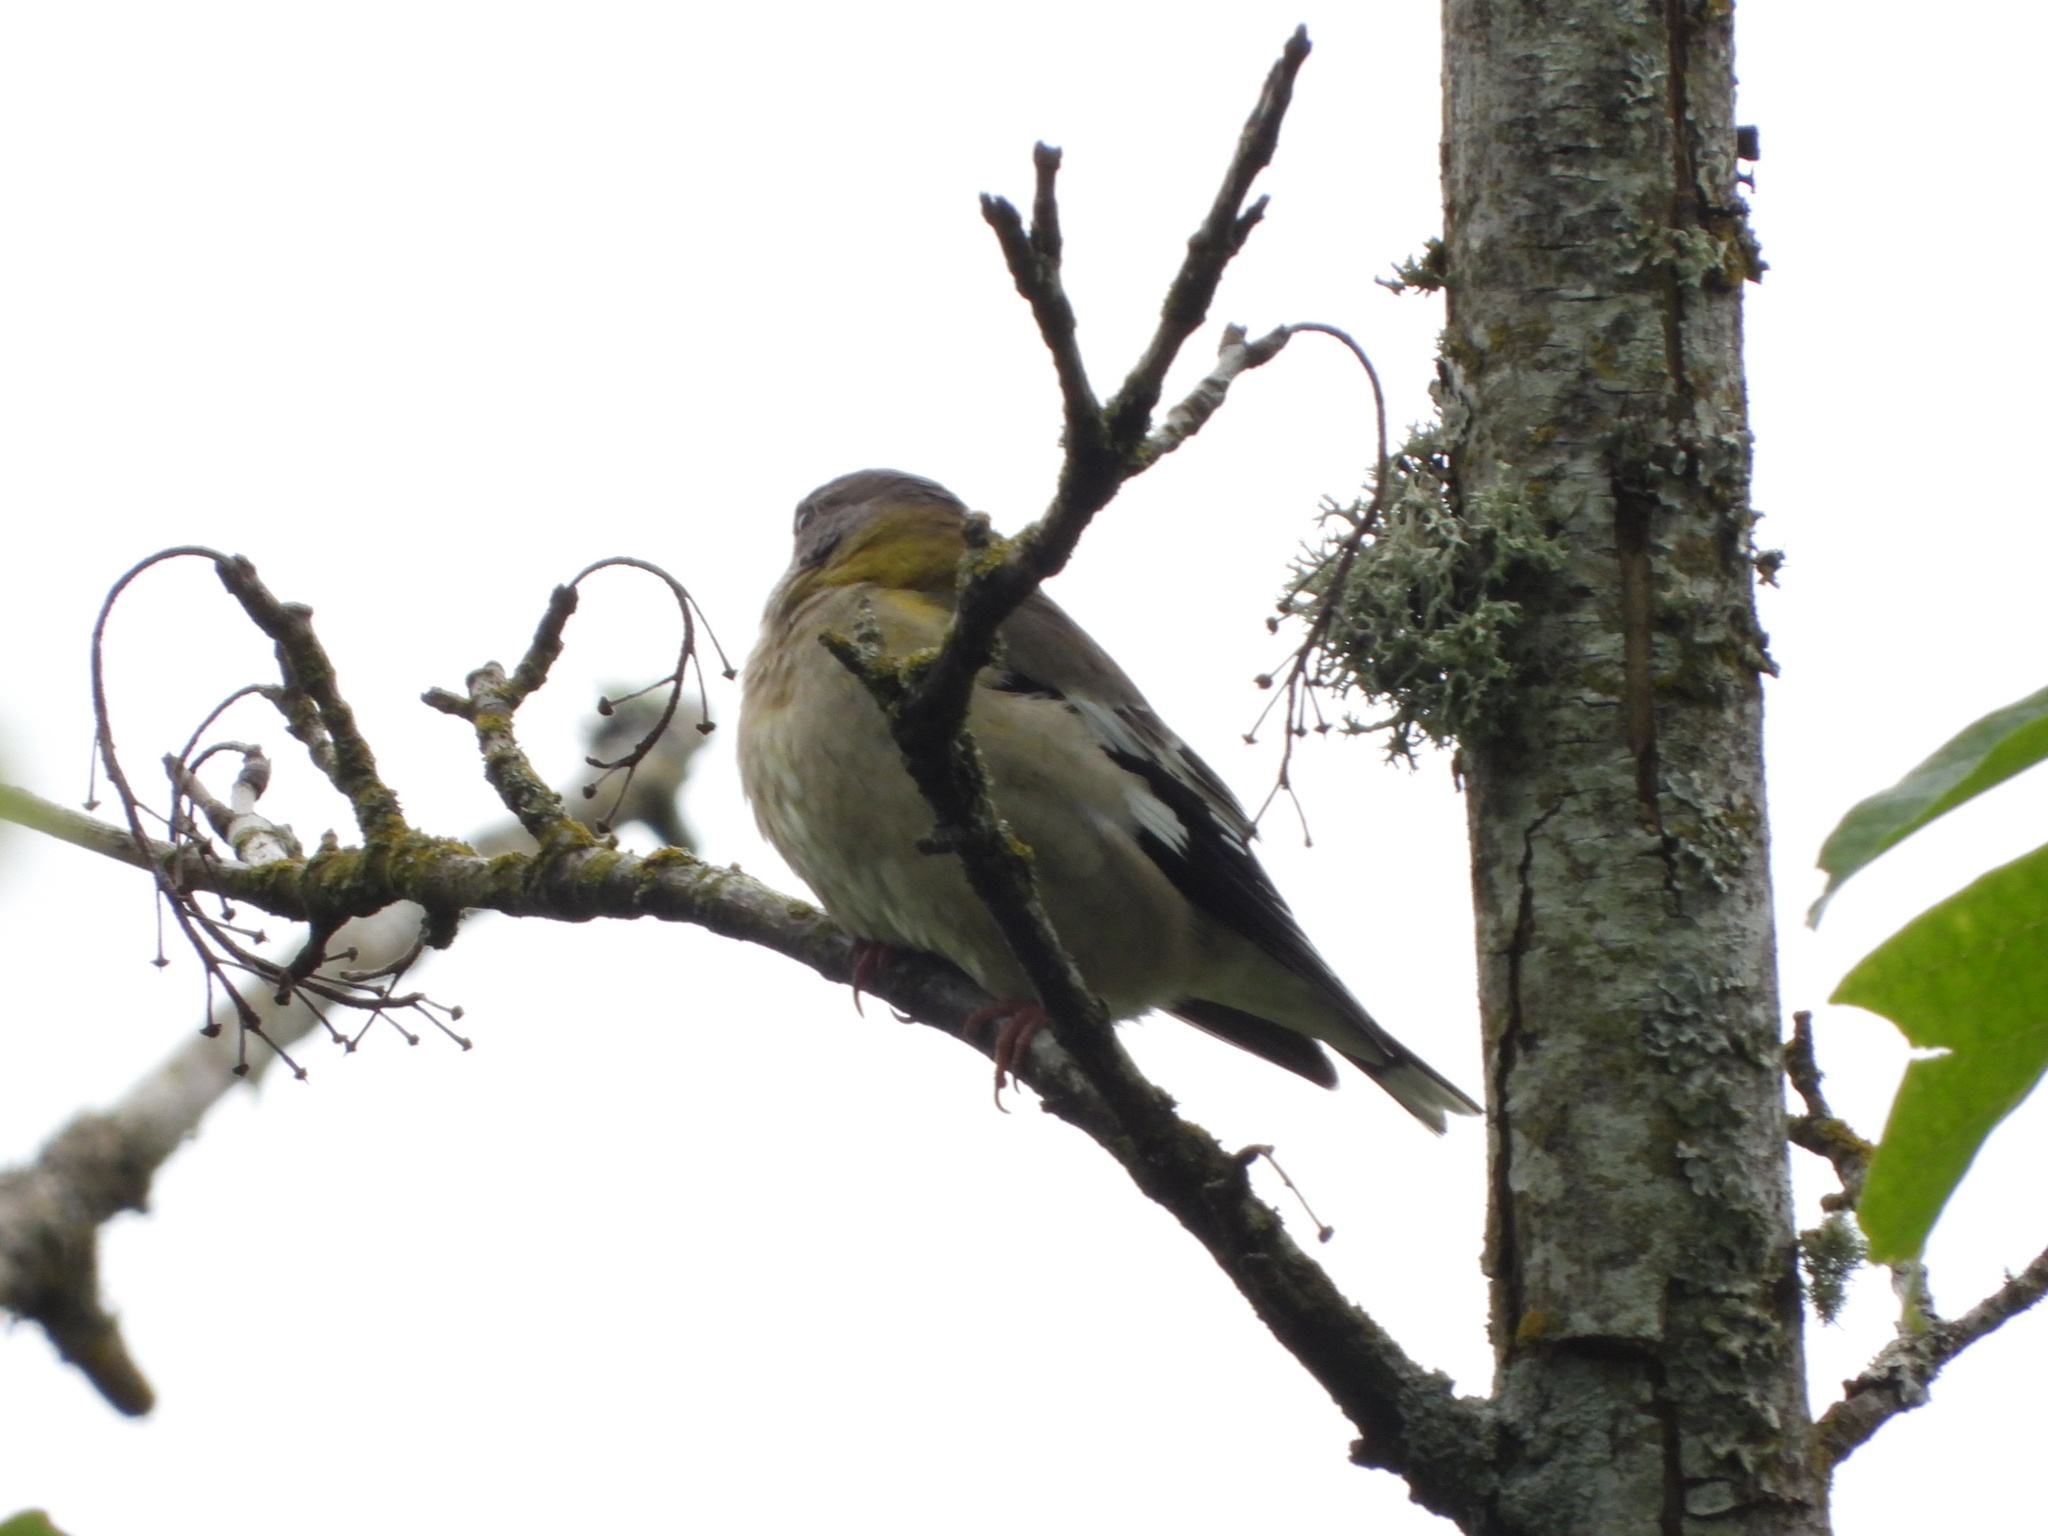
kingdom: Animalia
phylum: Chordata
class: Aves
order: Passeriformes
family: Fringillidae
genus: Hesperiphona
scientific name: Hesperiphona vespertina
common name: Evening grosbeak
